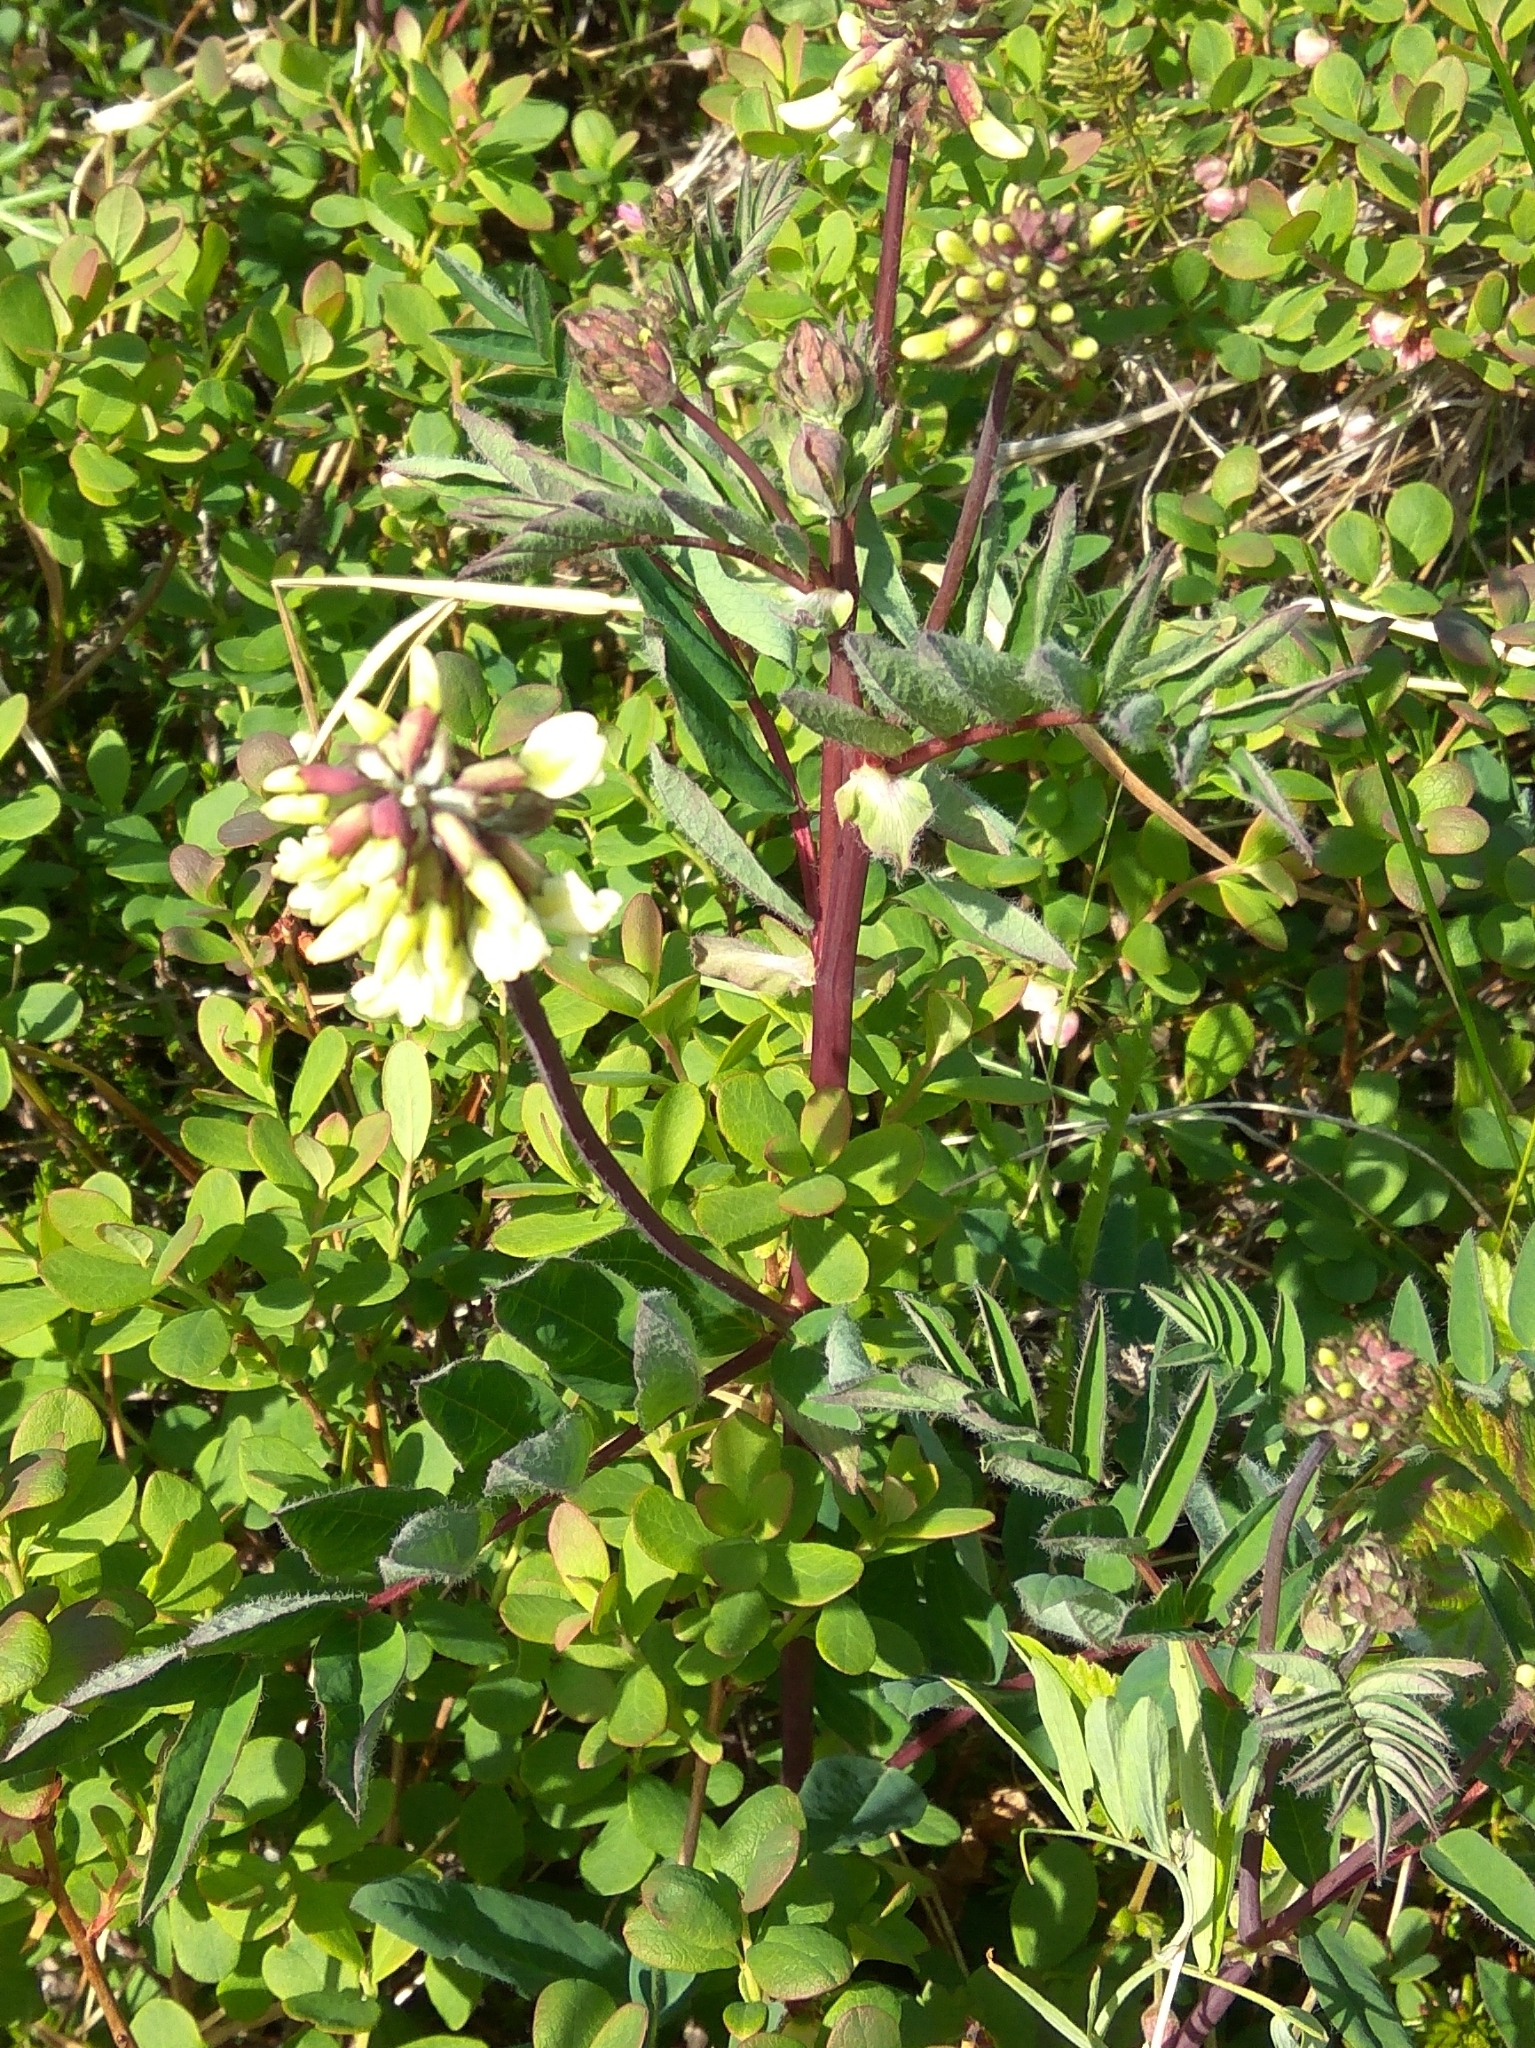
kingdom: Plantae
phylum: Tracheophyta
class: Magnoliopsida
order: Fabales
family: Fabaceae
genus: Astragalus
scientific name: Astragalus frigidus
